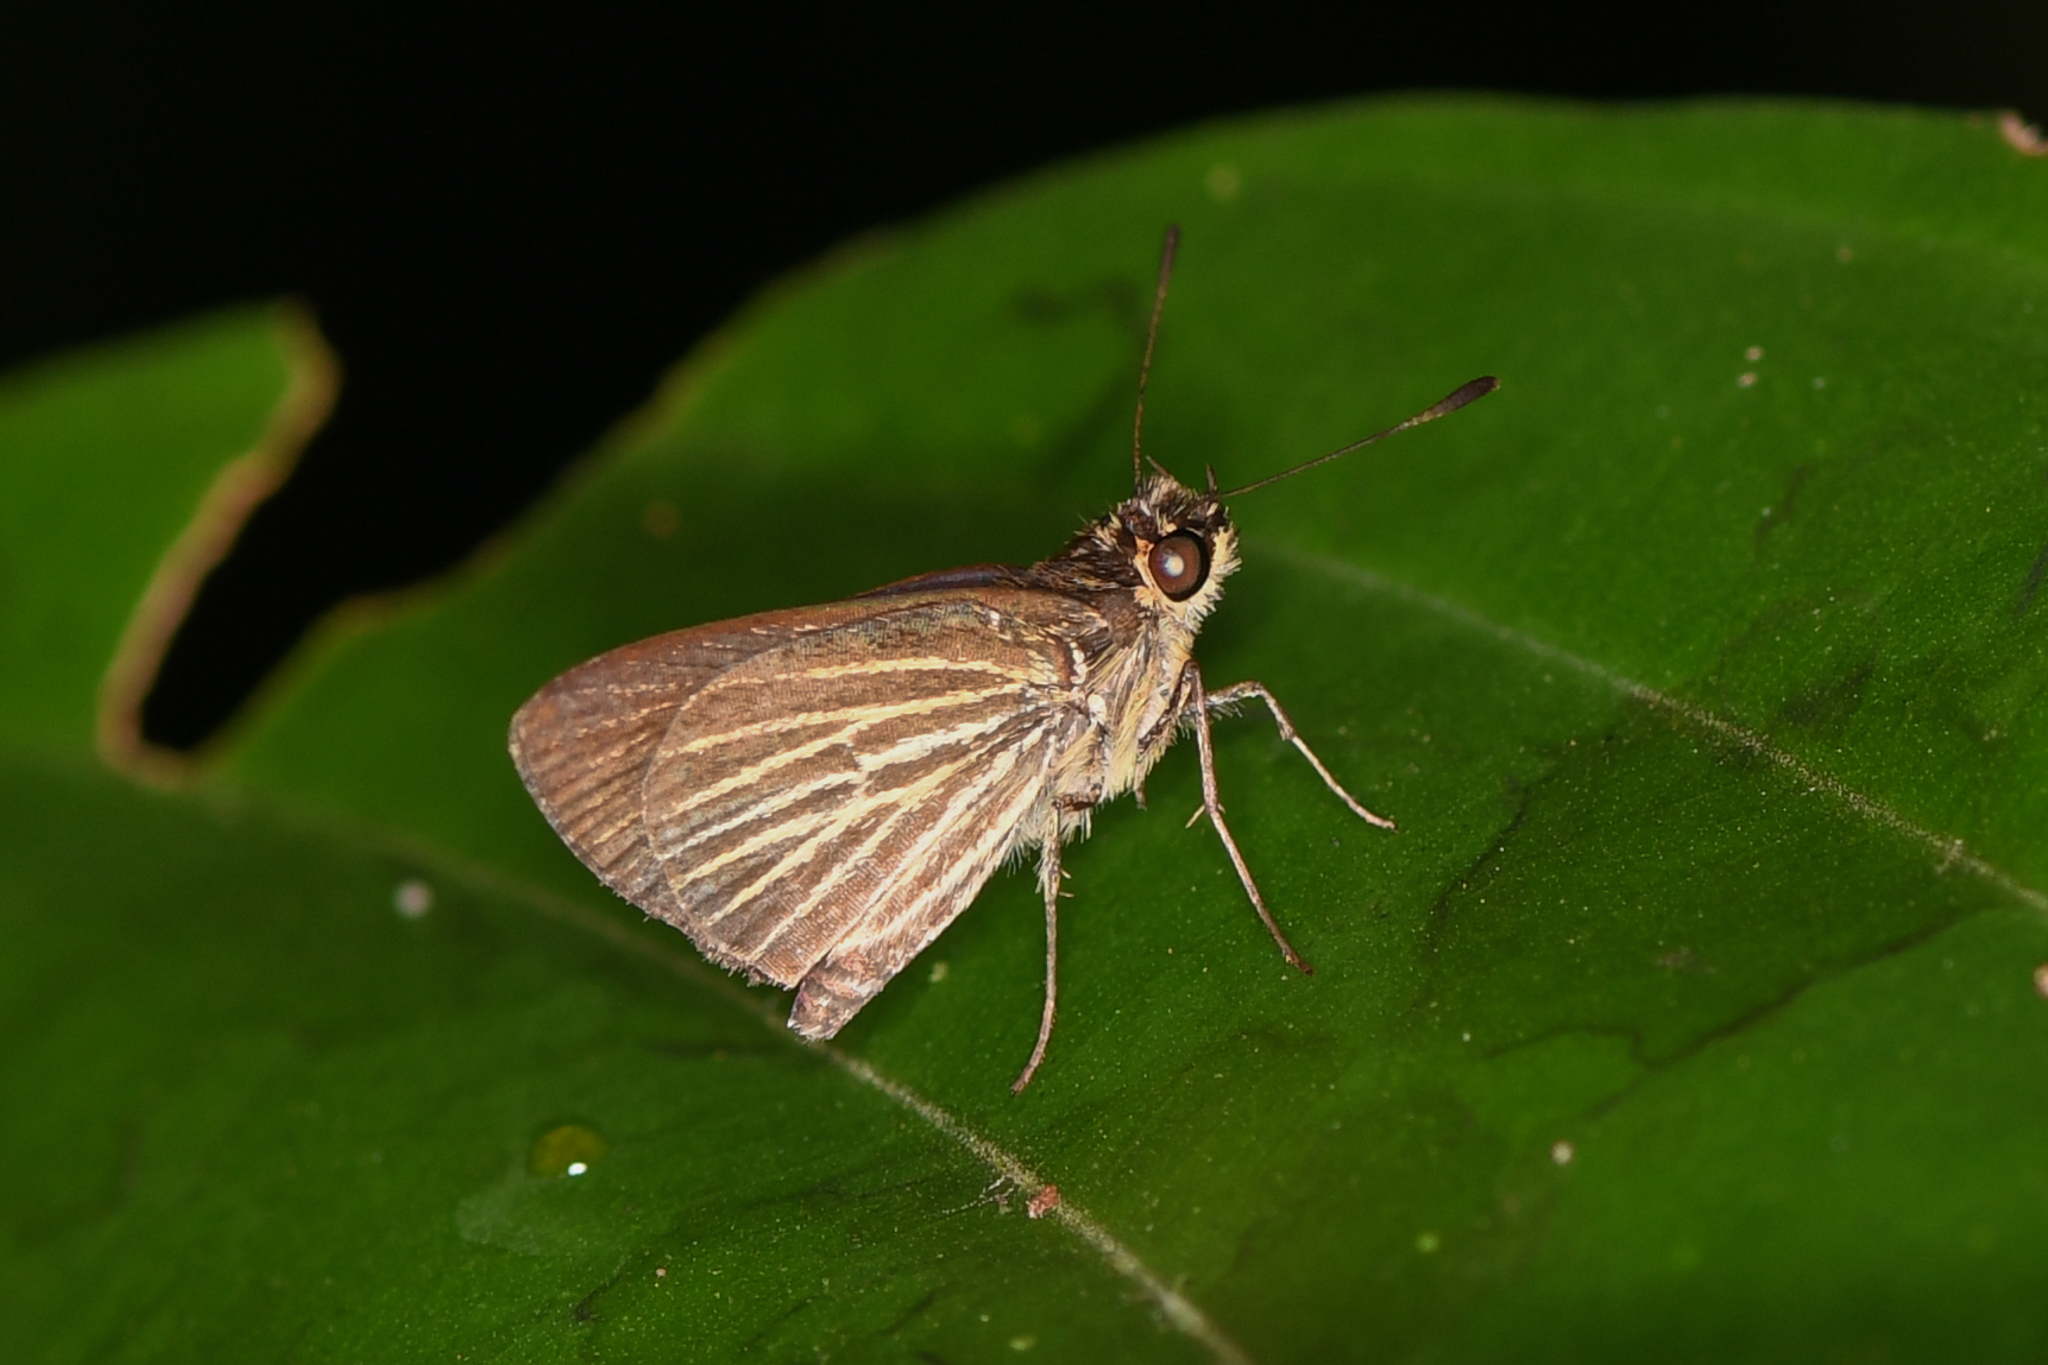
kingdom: Animalia
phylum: Arthropoda
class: Insecta
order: Lepidoptera
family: Hesperiidae
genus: Callimormus
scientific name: Callimormus radiola
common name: Radiant skipper
